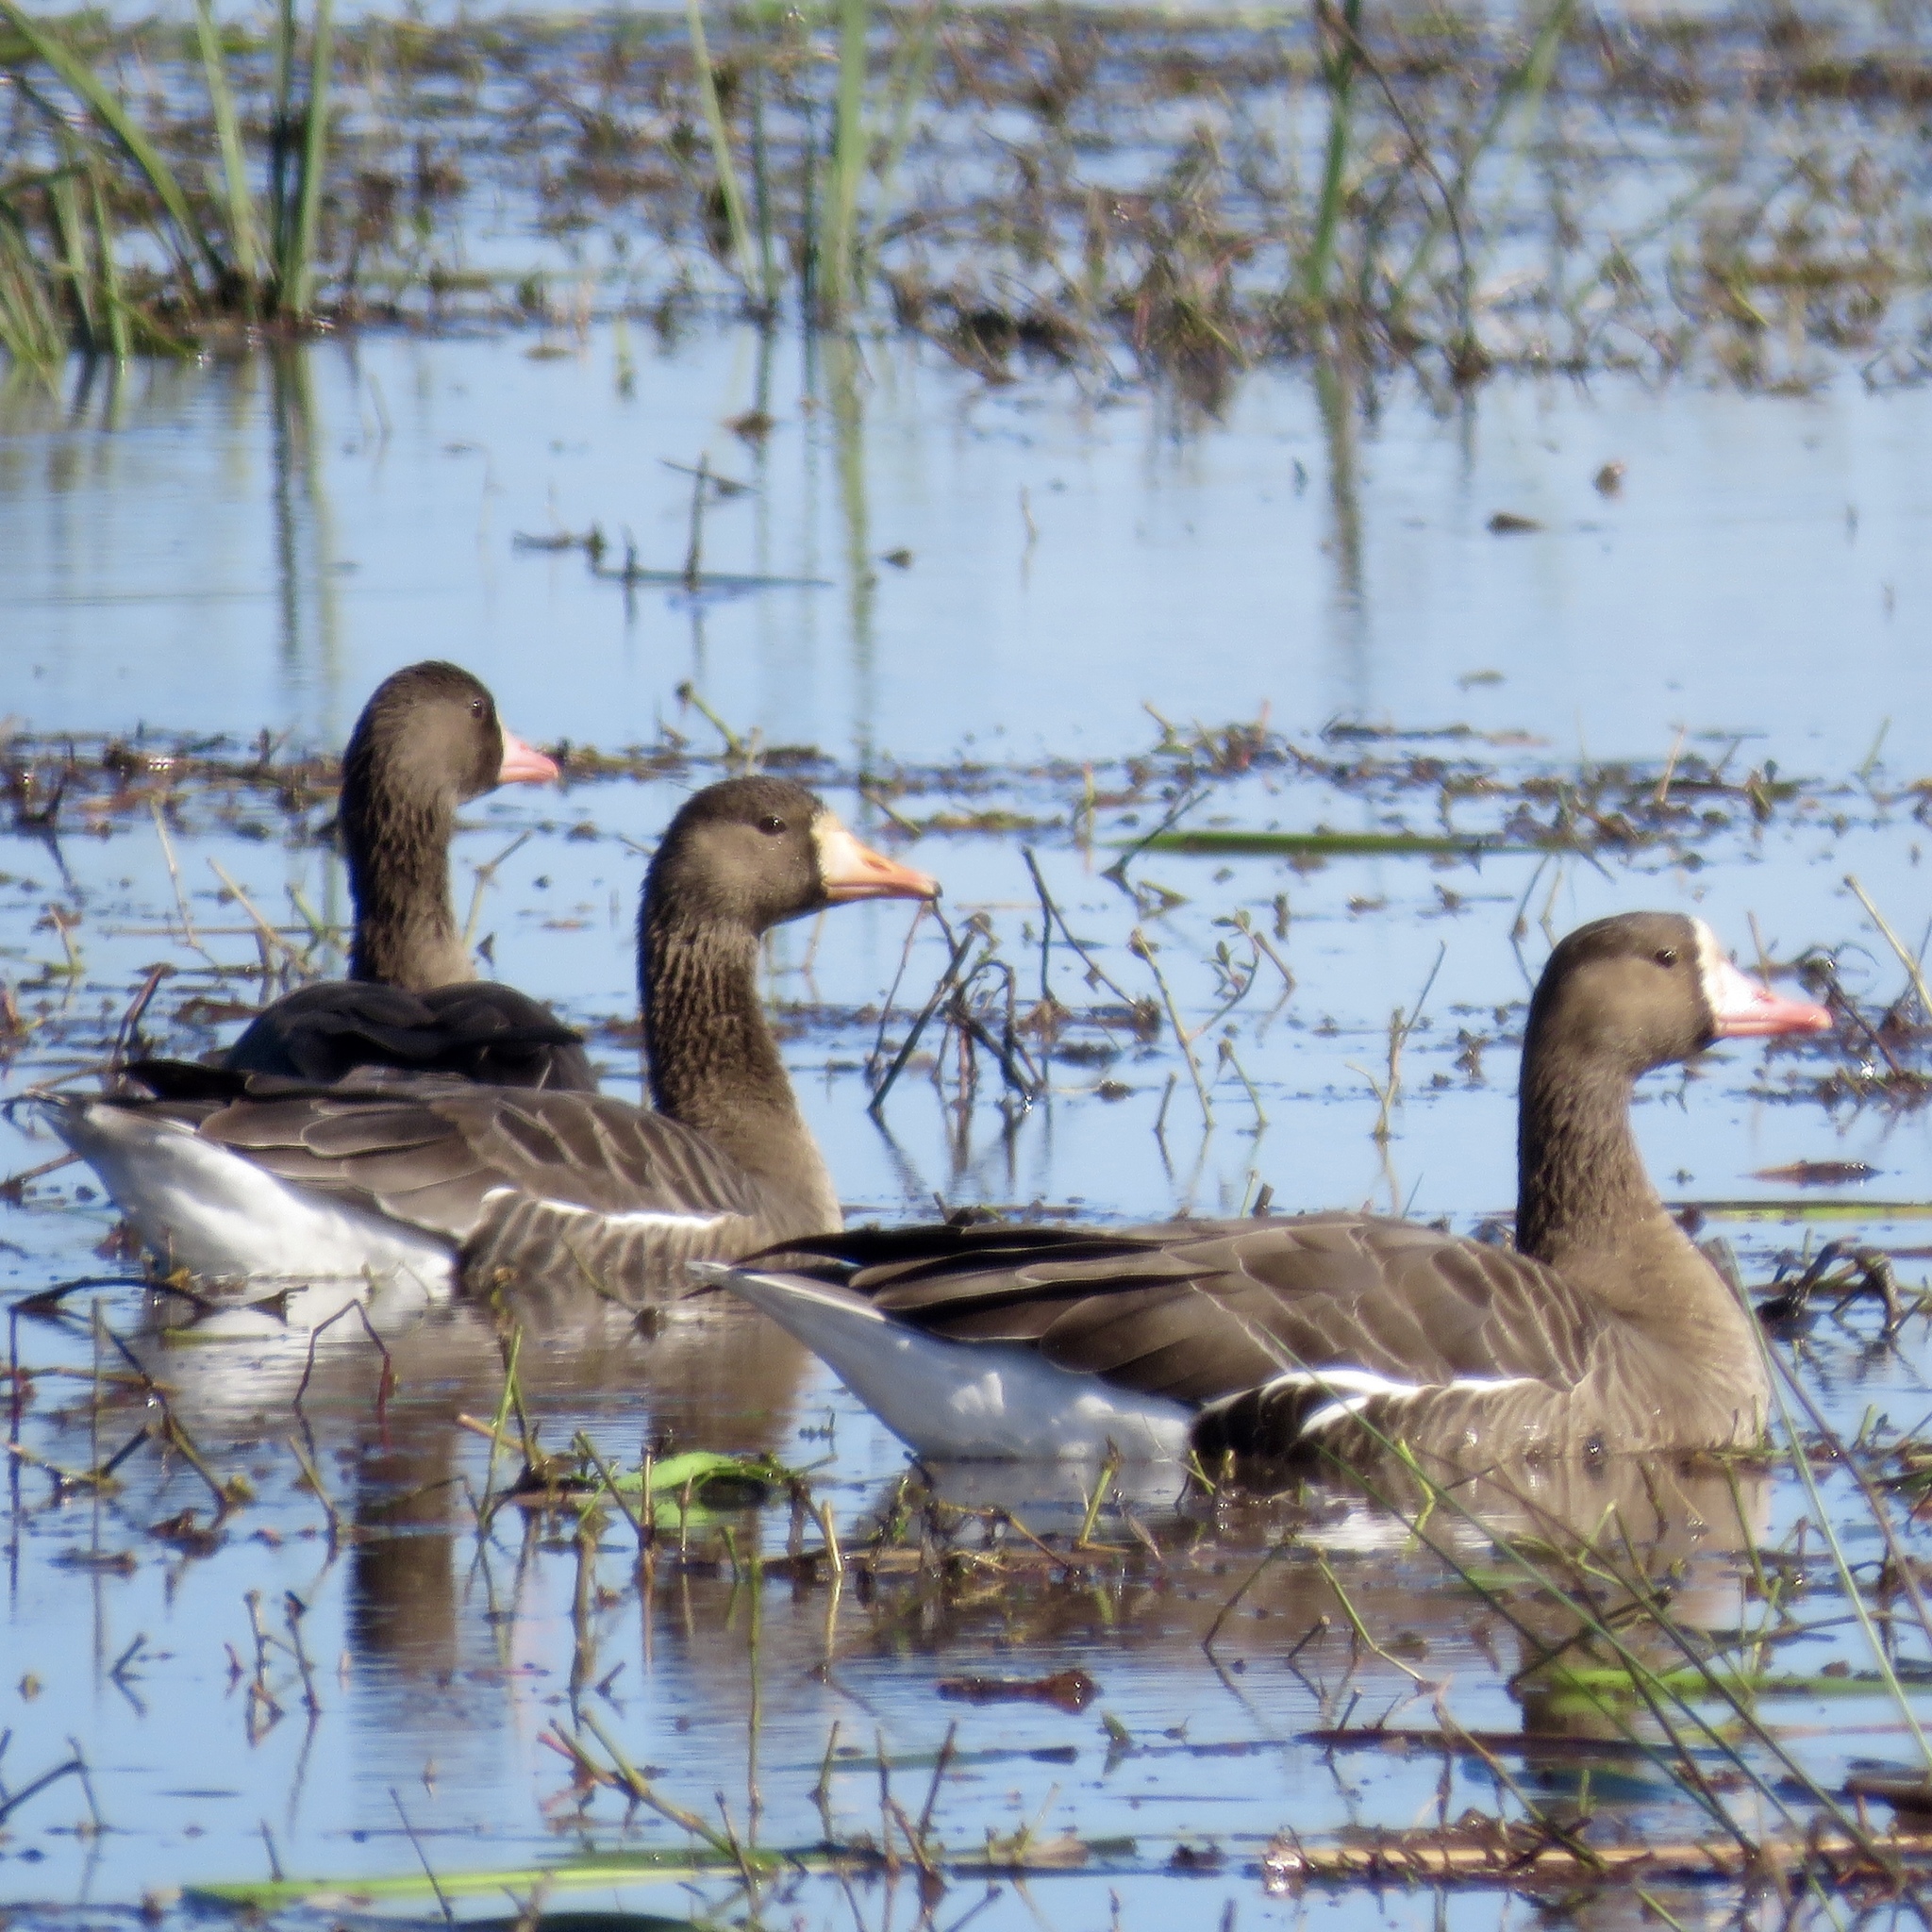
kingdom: Animalia
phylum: Chordata
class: Aves
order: Anseriformes
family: Anatidae
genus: Anser
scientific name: Anser albifrons
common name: Greater white-fronted goose
